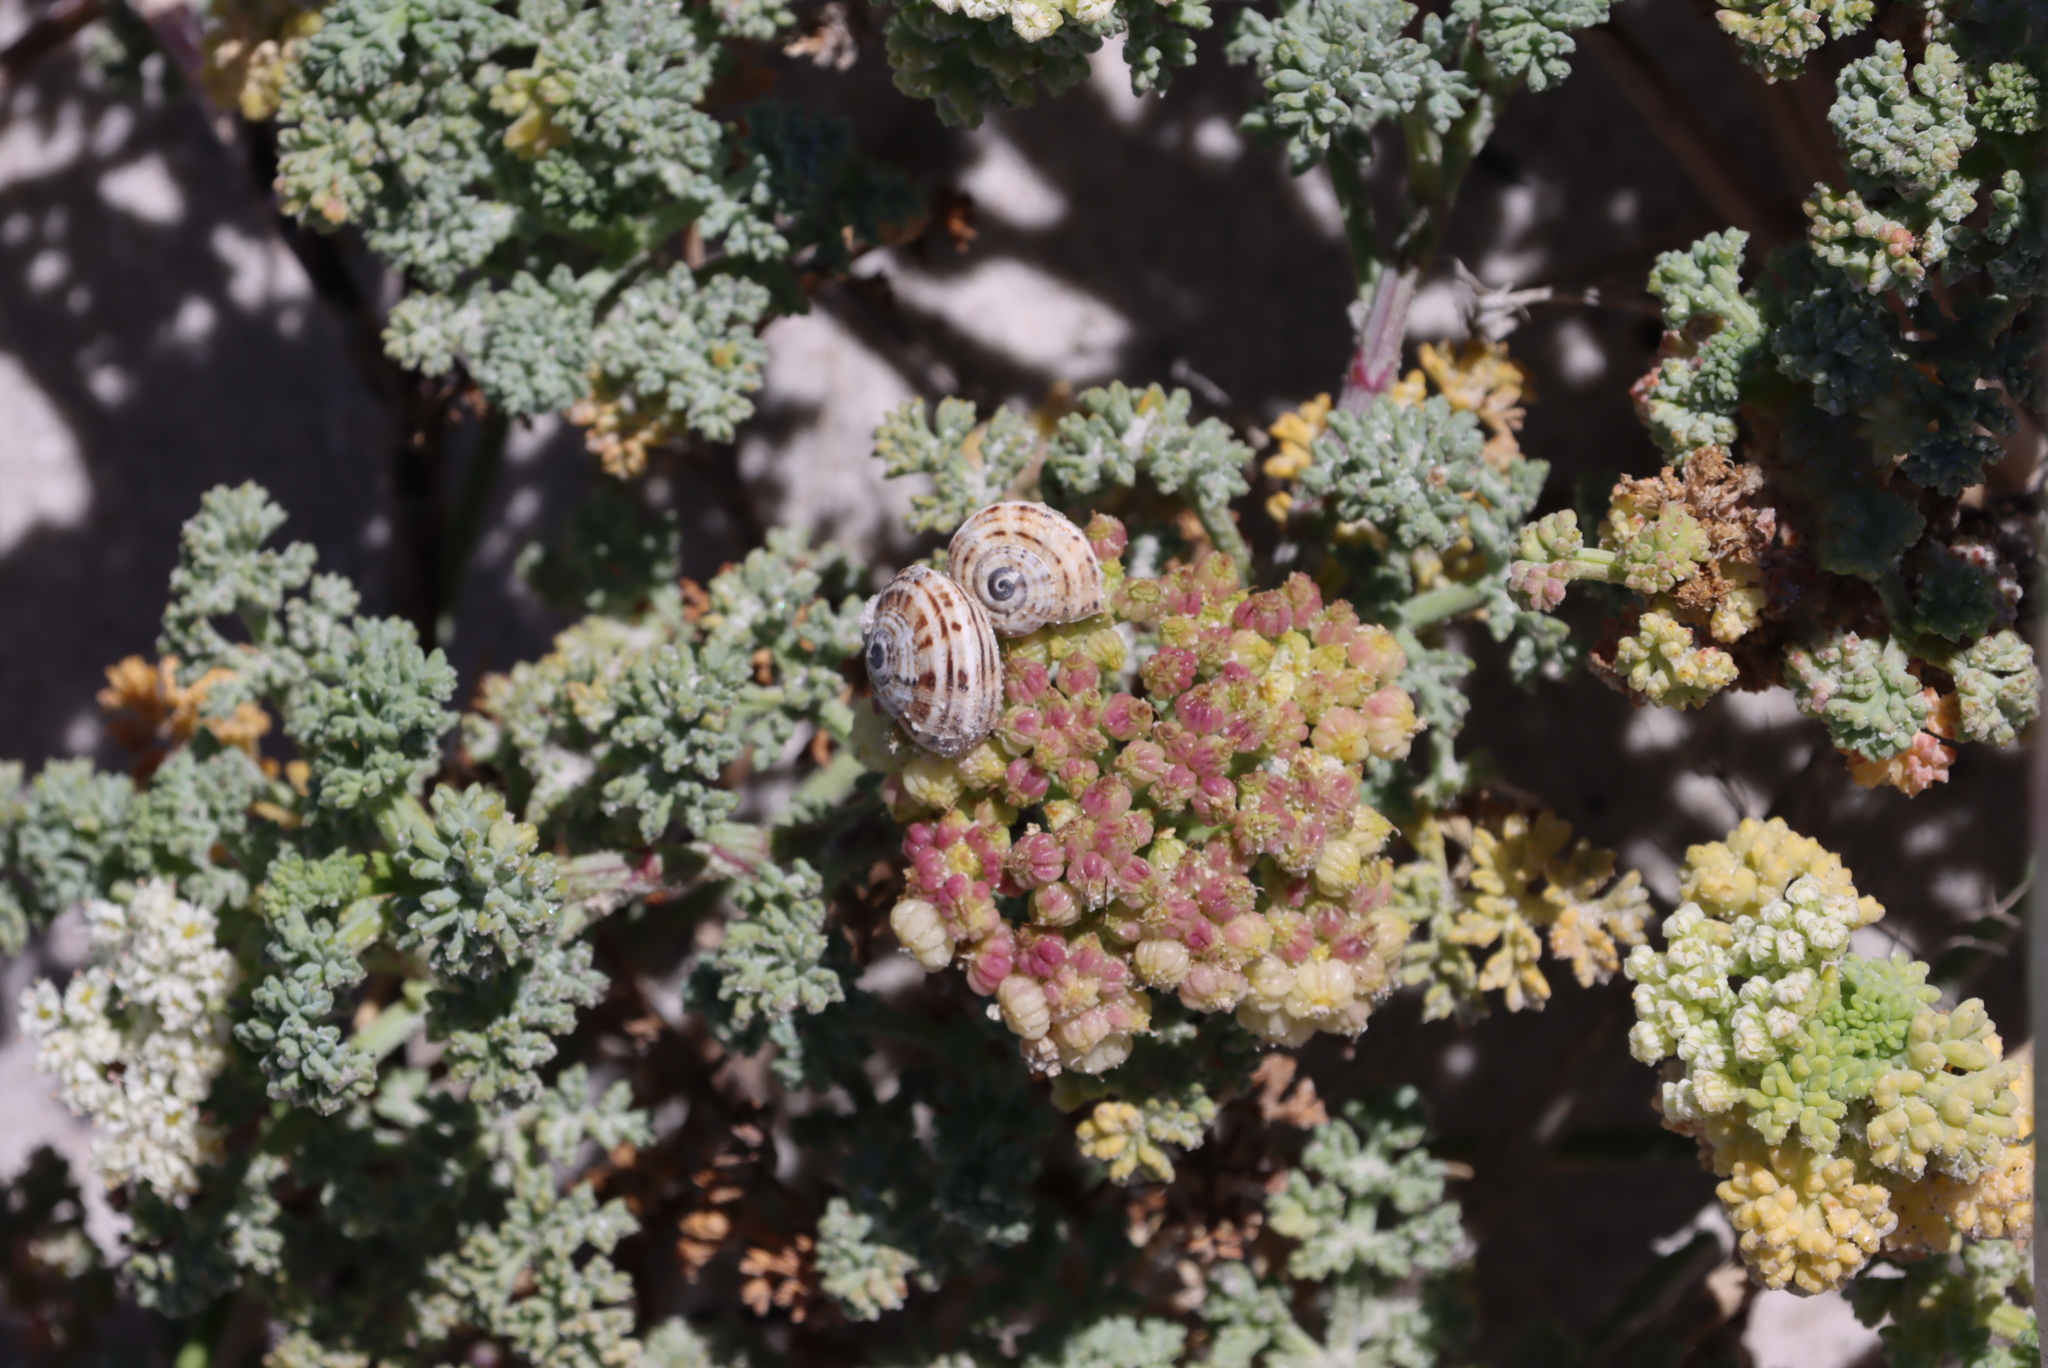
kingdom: Animalia
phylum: Mollusca
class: Gastropoda
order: Stylommatophora
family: Helicidae
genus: Theba
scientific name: Theba pisana
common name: White snail
